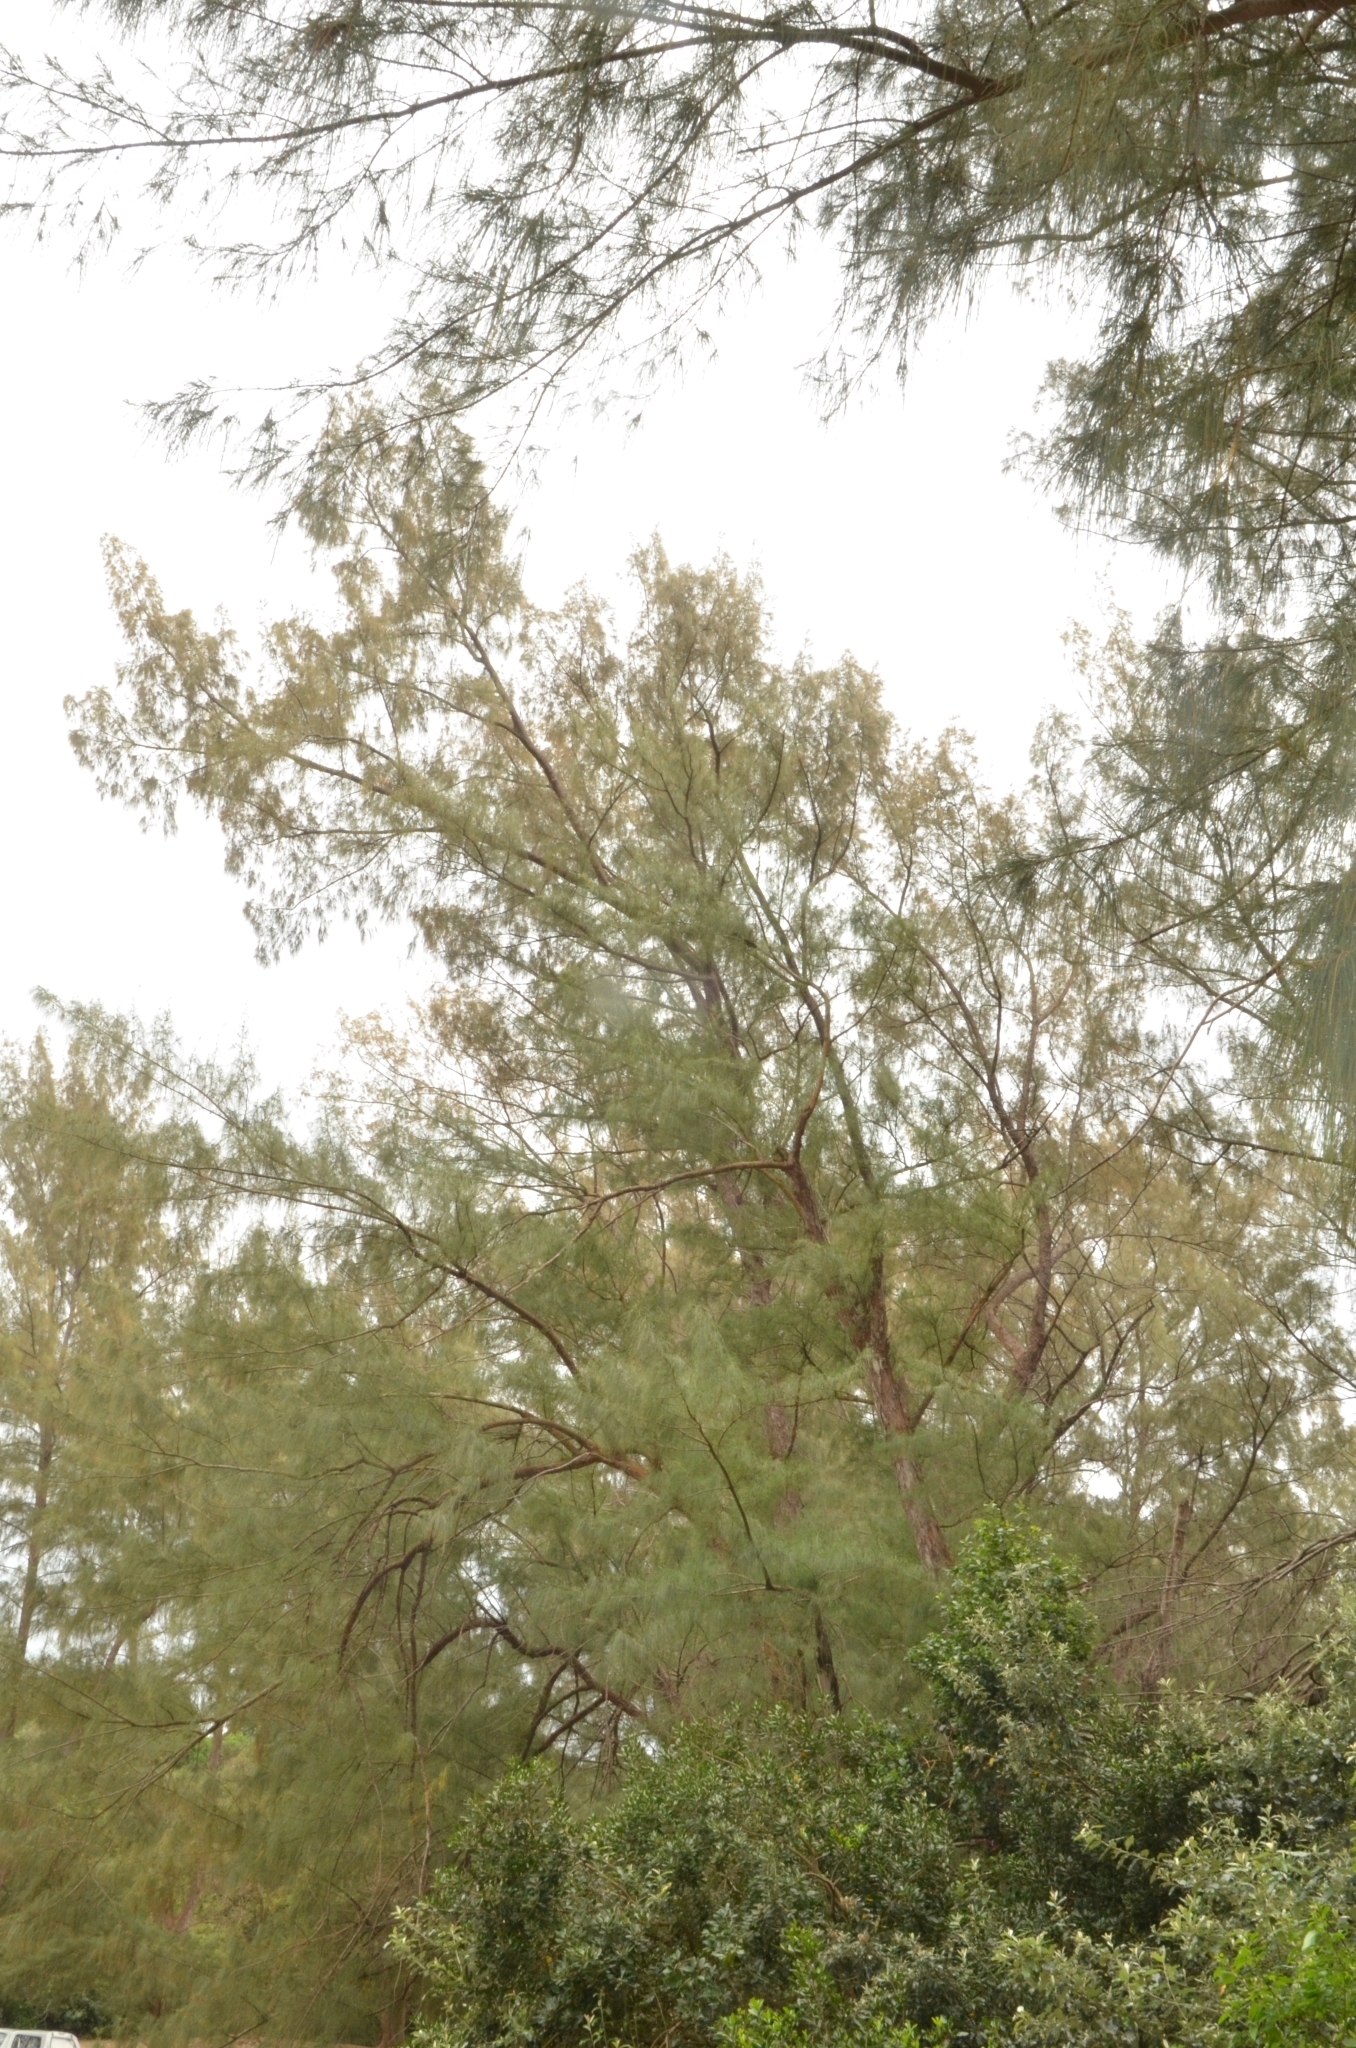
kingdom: Plantae
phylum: Tracheophyta
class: Magnoliopsida
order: Fagales
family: Casuarinaceae
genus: Casuarina
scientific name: Casuarina equisetifolia
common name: Beach sheoak
